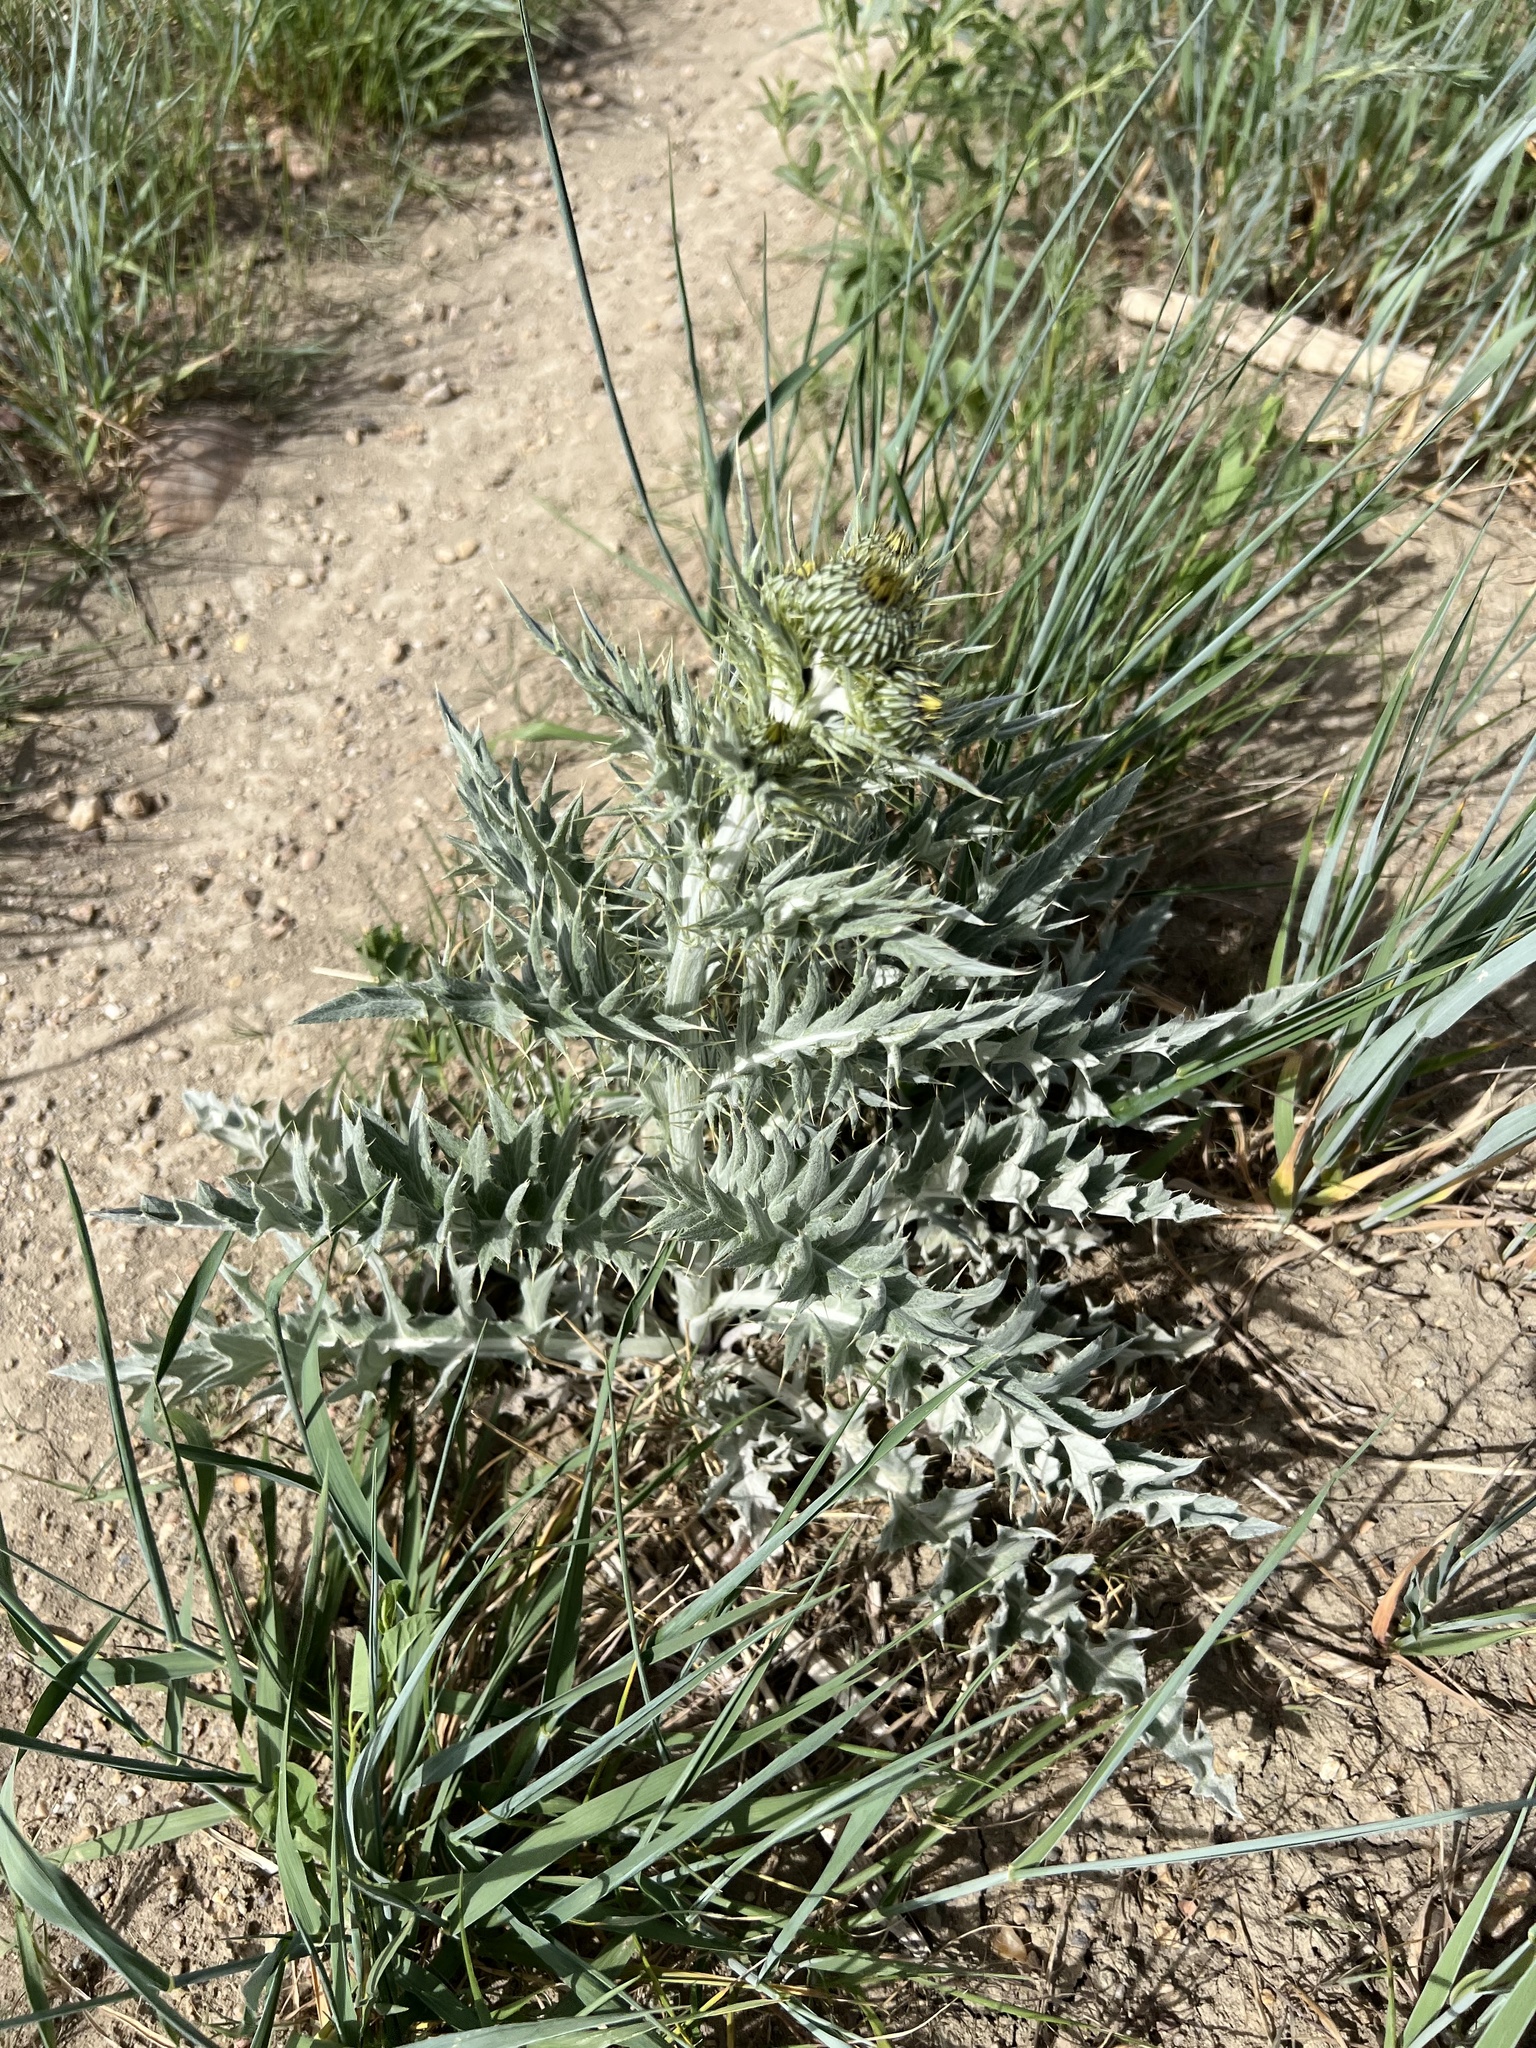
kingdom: Plantae
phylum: Tracheophyta
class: Magnoliopsida
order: Asterales
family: Asteraceae
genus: Cirsium
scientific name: Cirsium undulatum
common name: Pasture thistle
